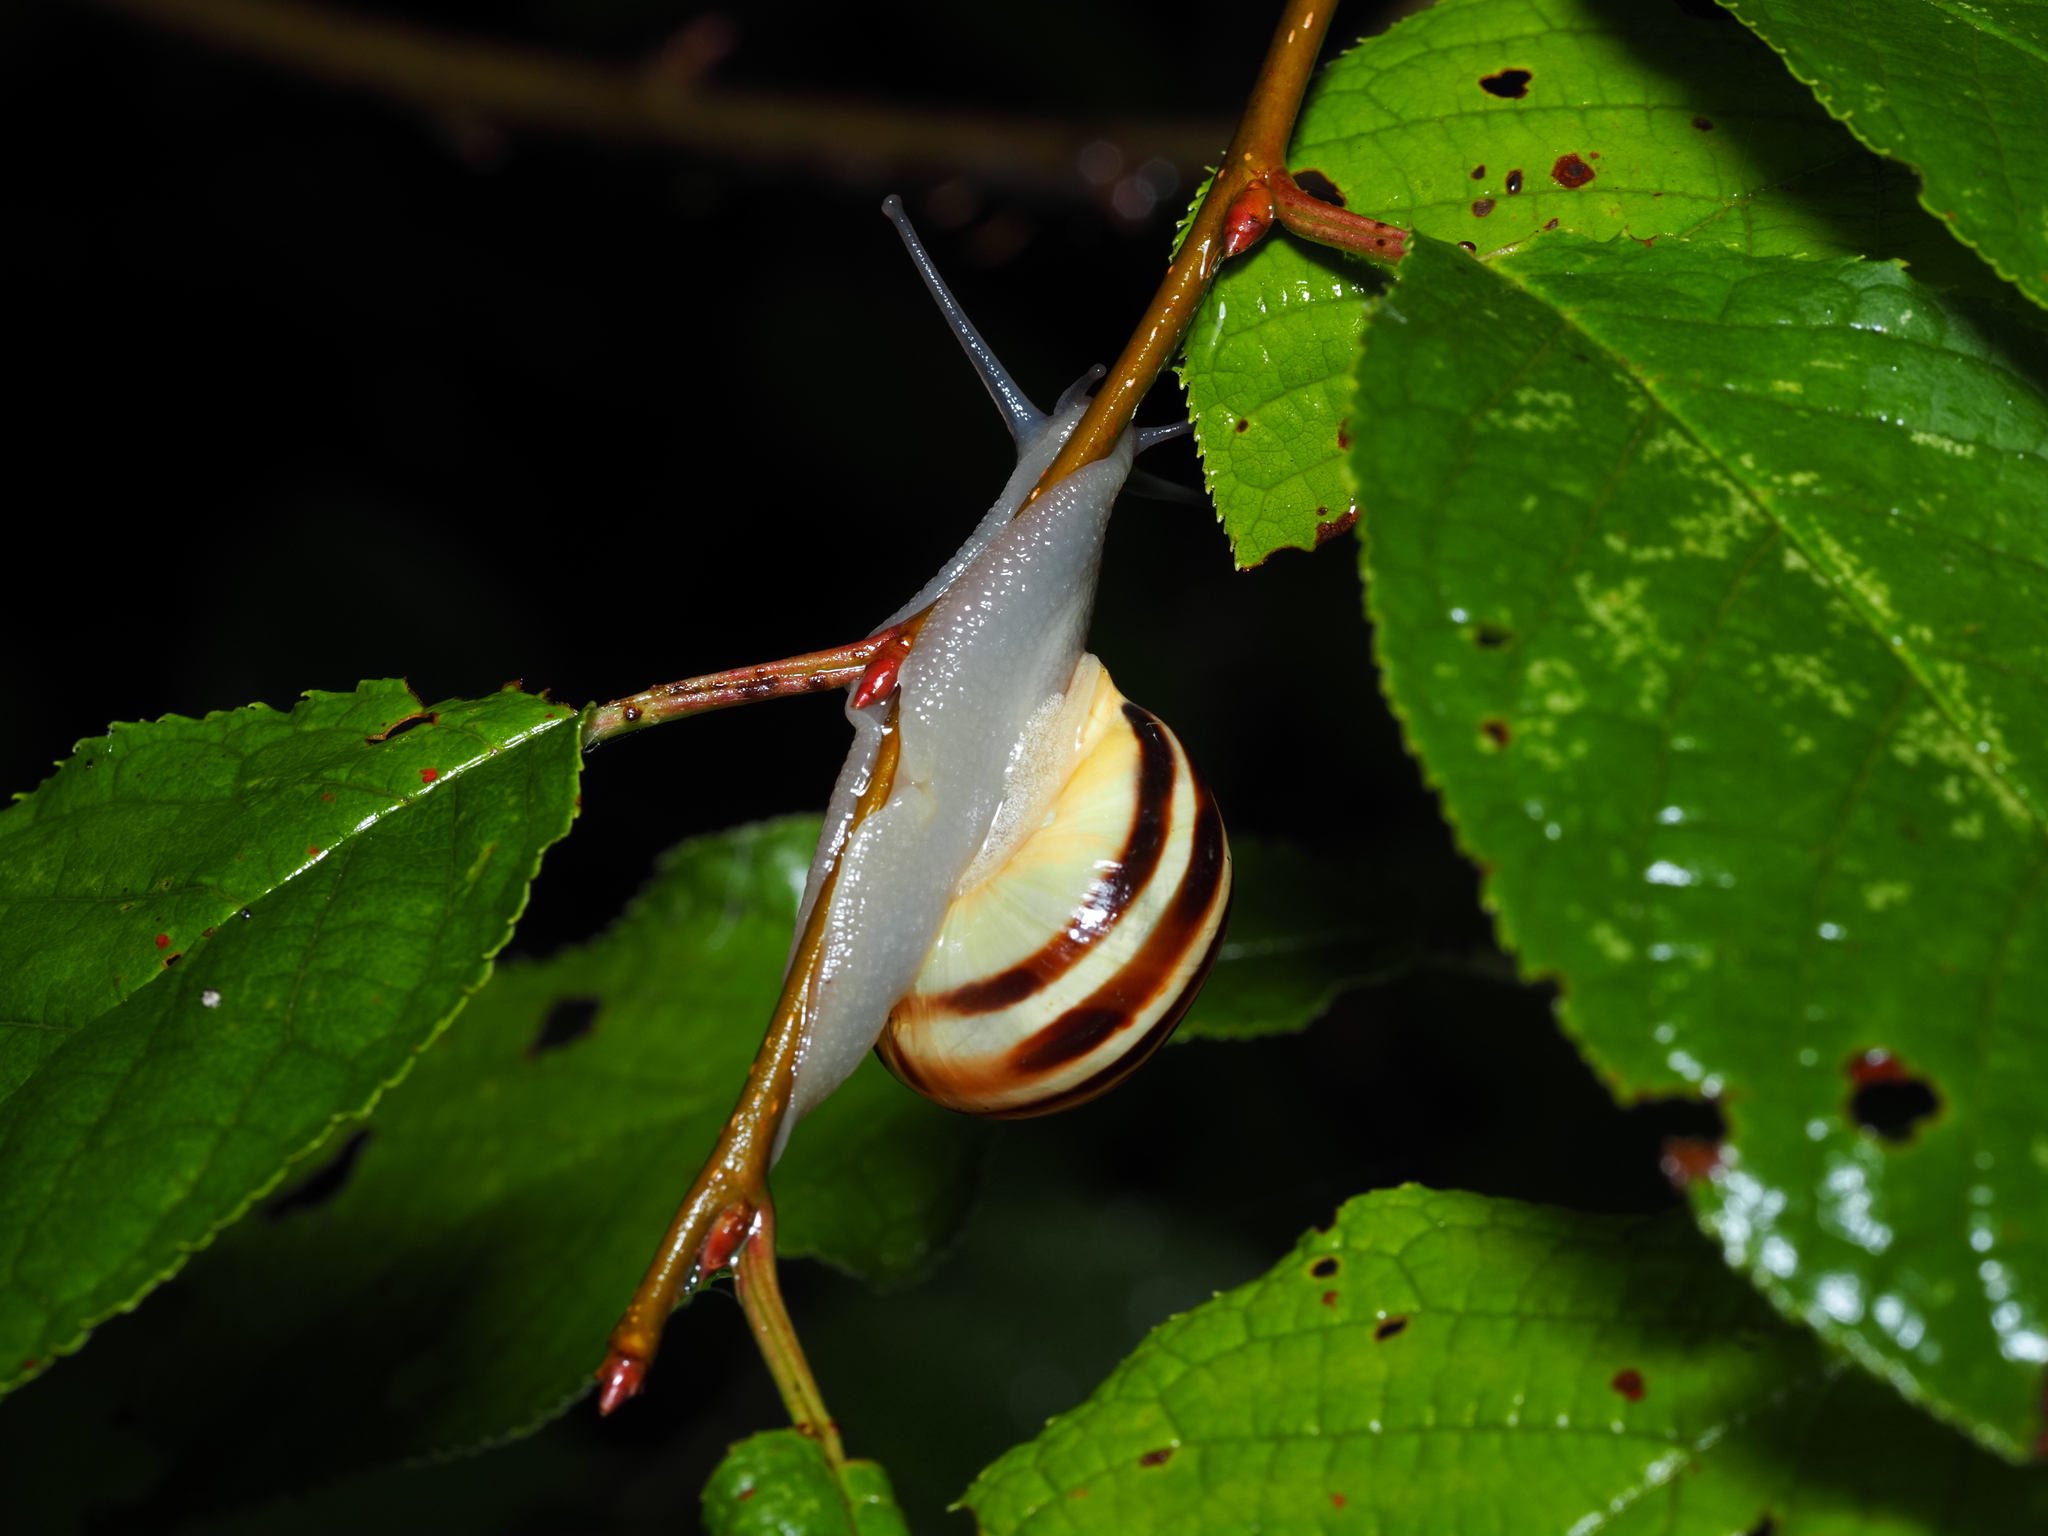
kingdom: Animalia
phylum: Mollusca
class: Gastropoda
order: Stylommatophora
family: Helicidae
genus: Cepaea
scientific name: Cepaea hortensis
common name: White-lip gardensnail
